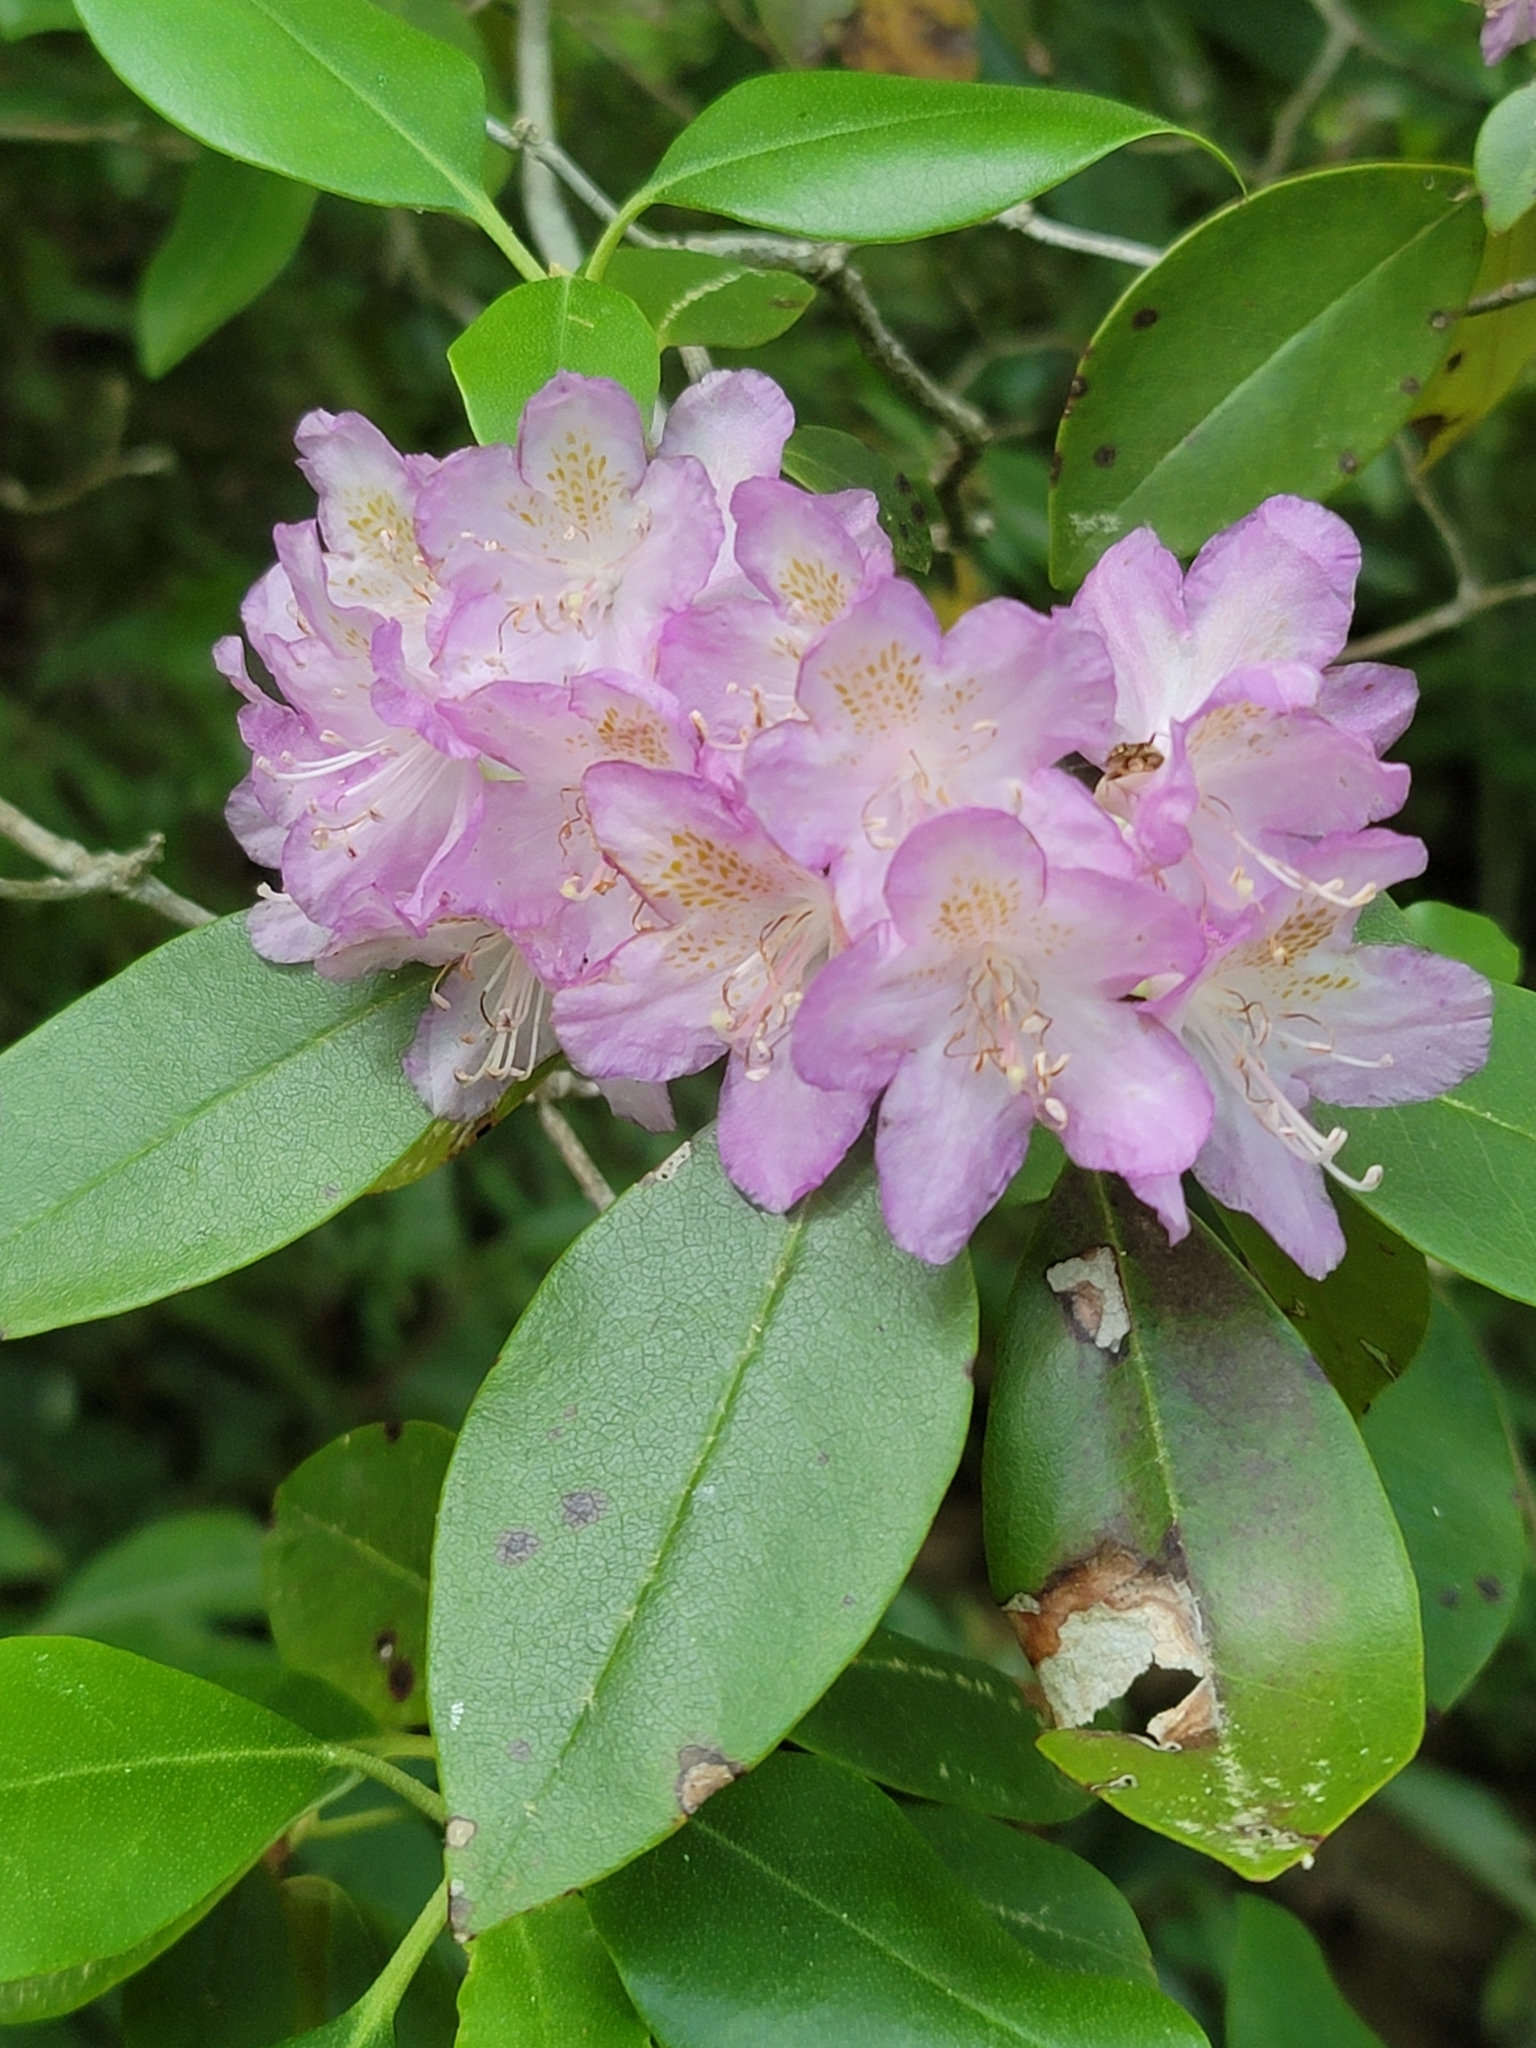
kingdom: Plantae
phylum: Tracheophyta
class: Magnoliopsida
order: Ericales
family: Ericaceae
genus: Rhododendron
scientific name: Rhododendron minus
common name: Piedmont rhododendron
